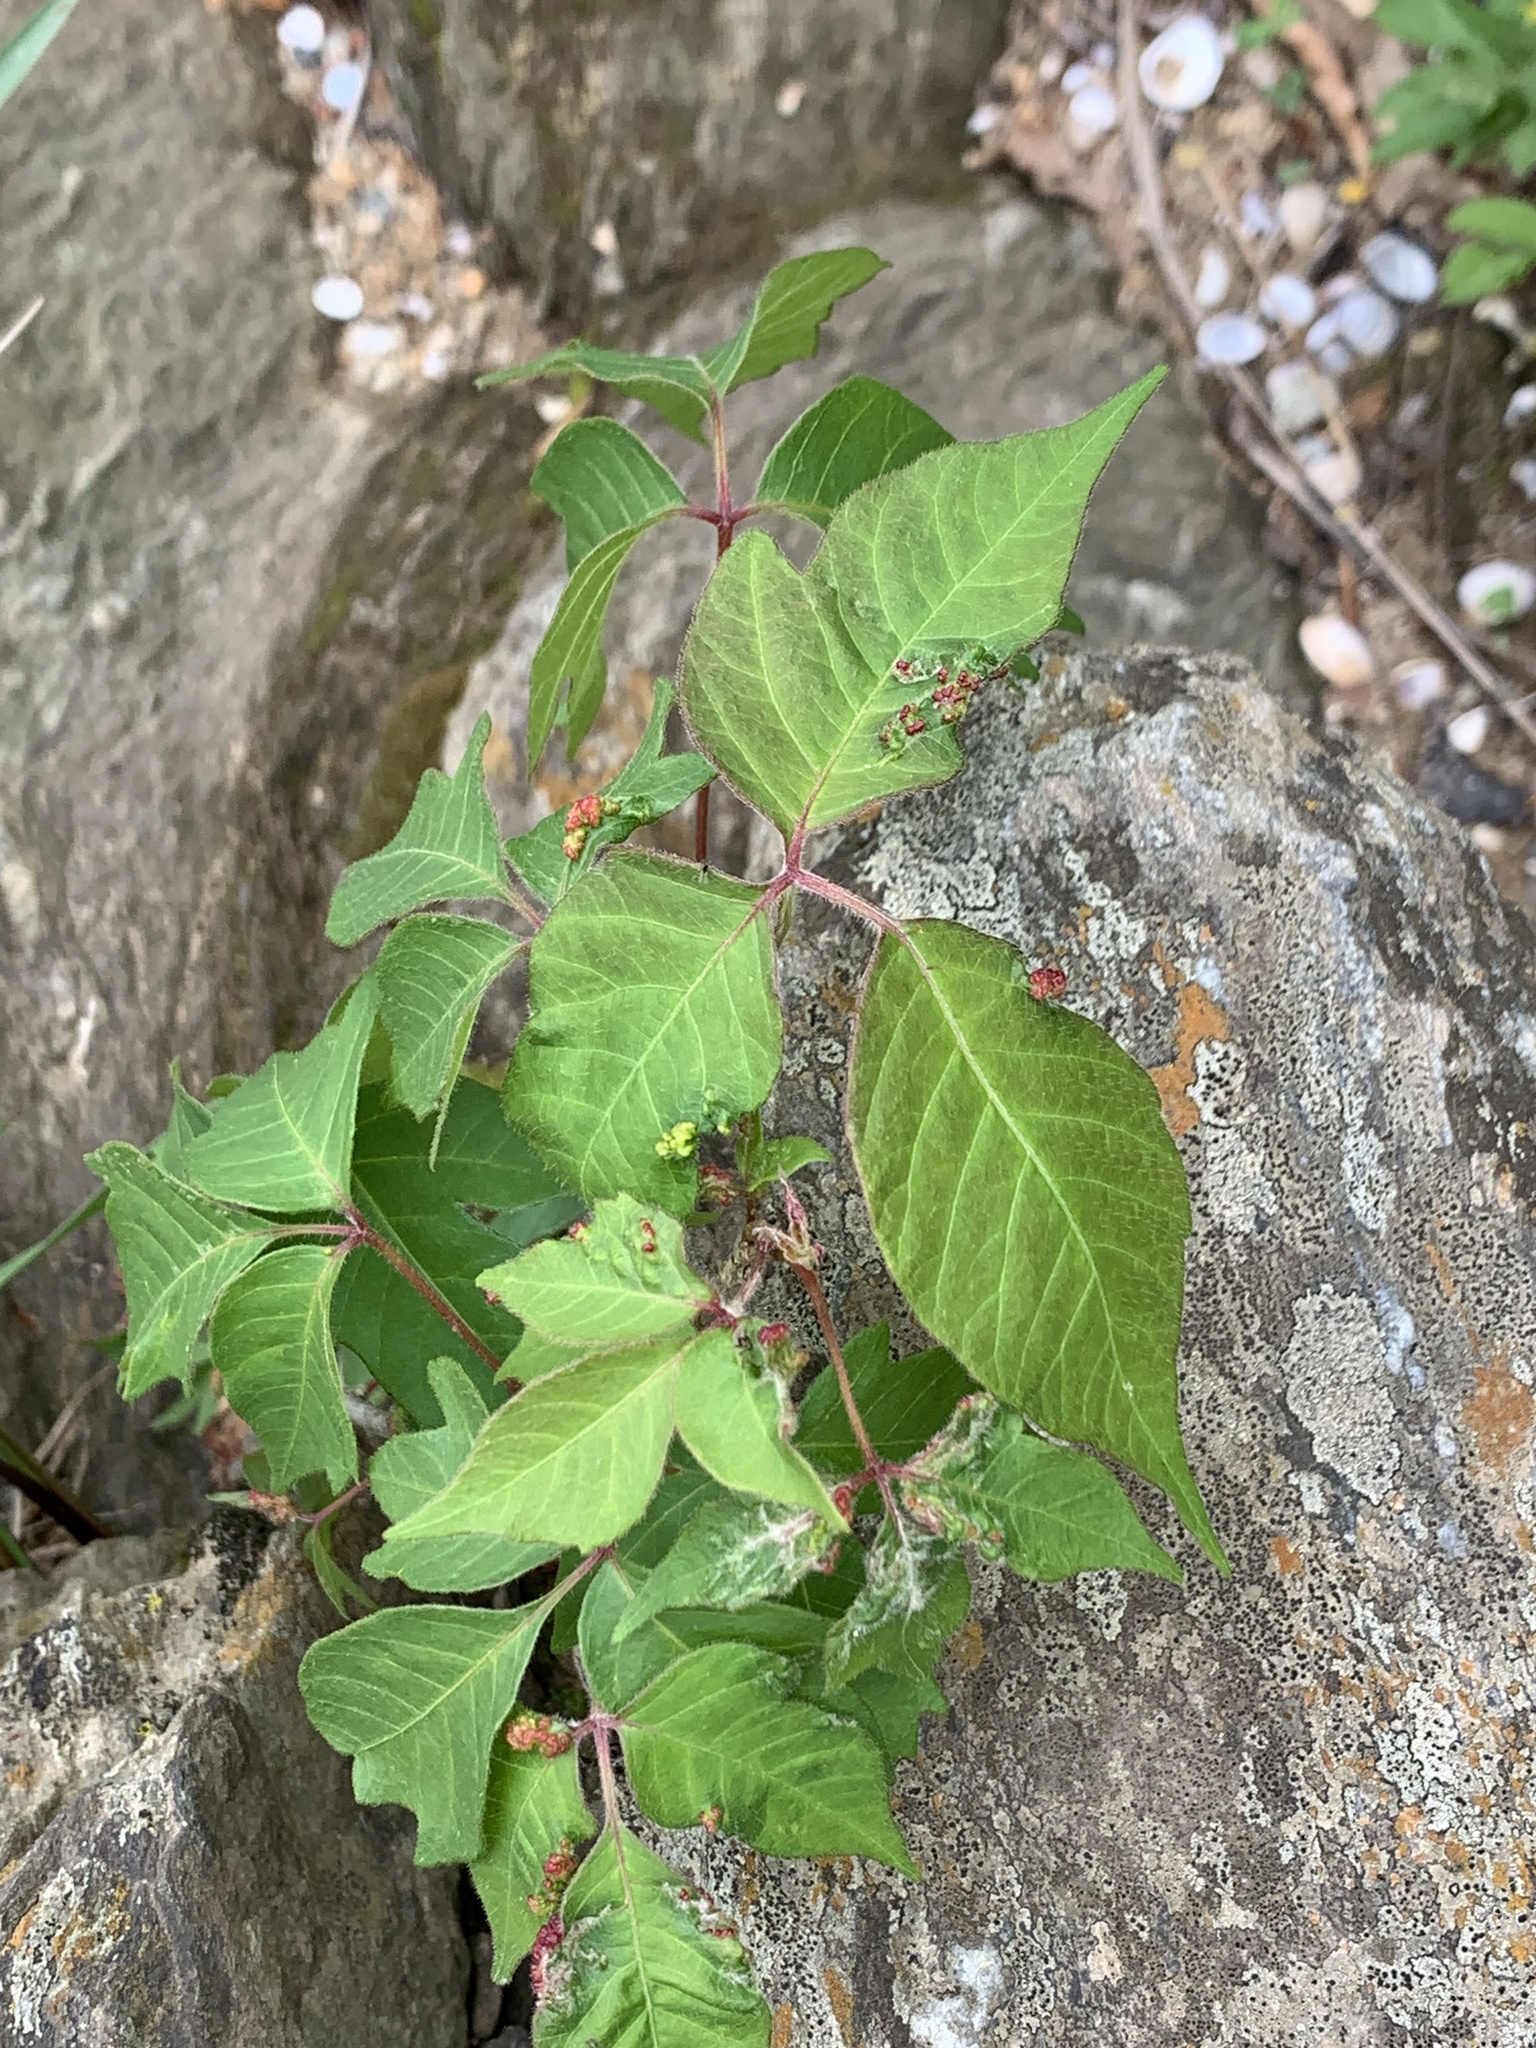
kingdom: Animalia
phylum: Arthropoda
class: Arachnida
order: Trombidiformes
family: Eriophyidae
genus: Aculops
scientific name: Aculops
